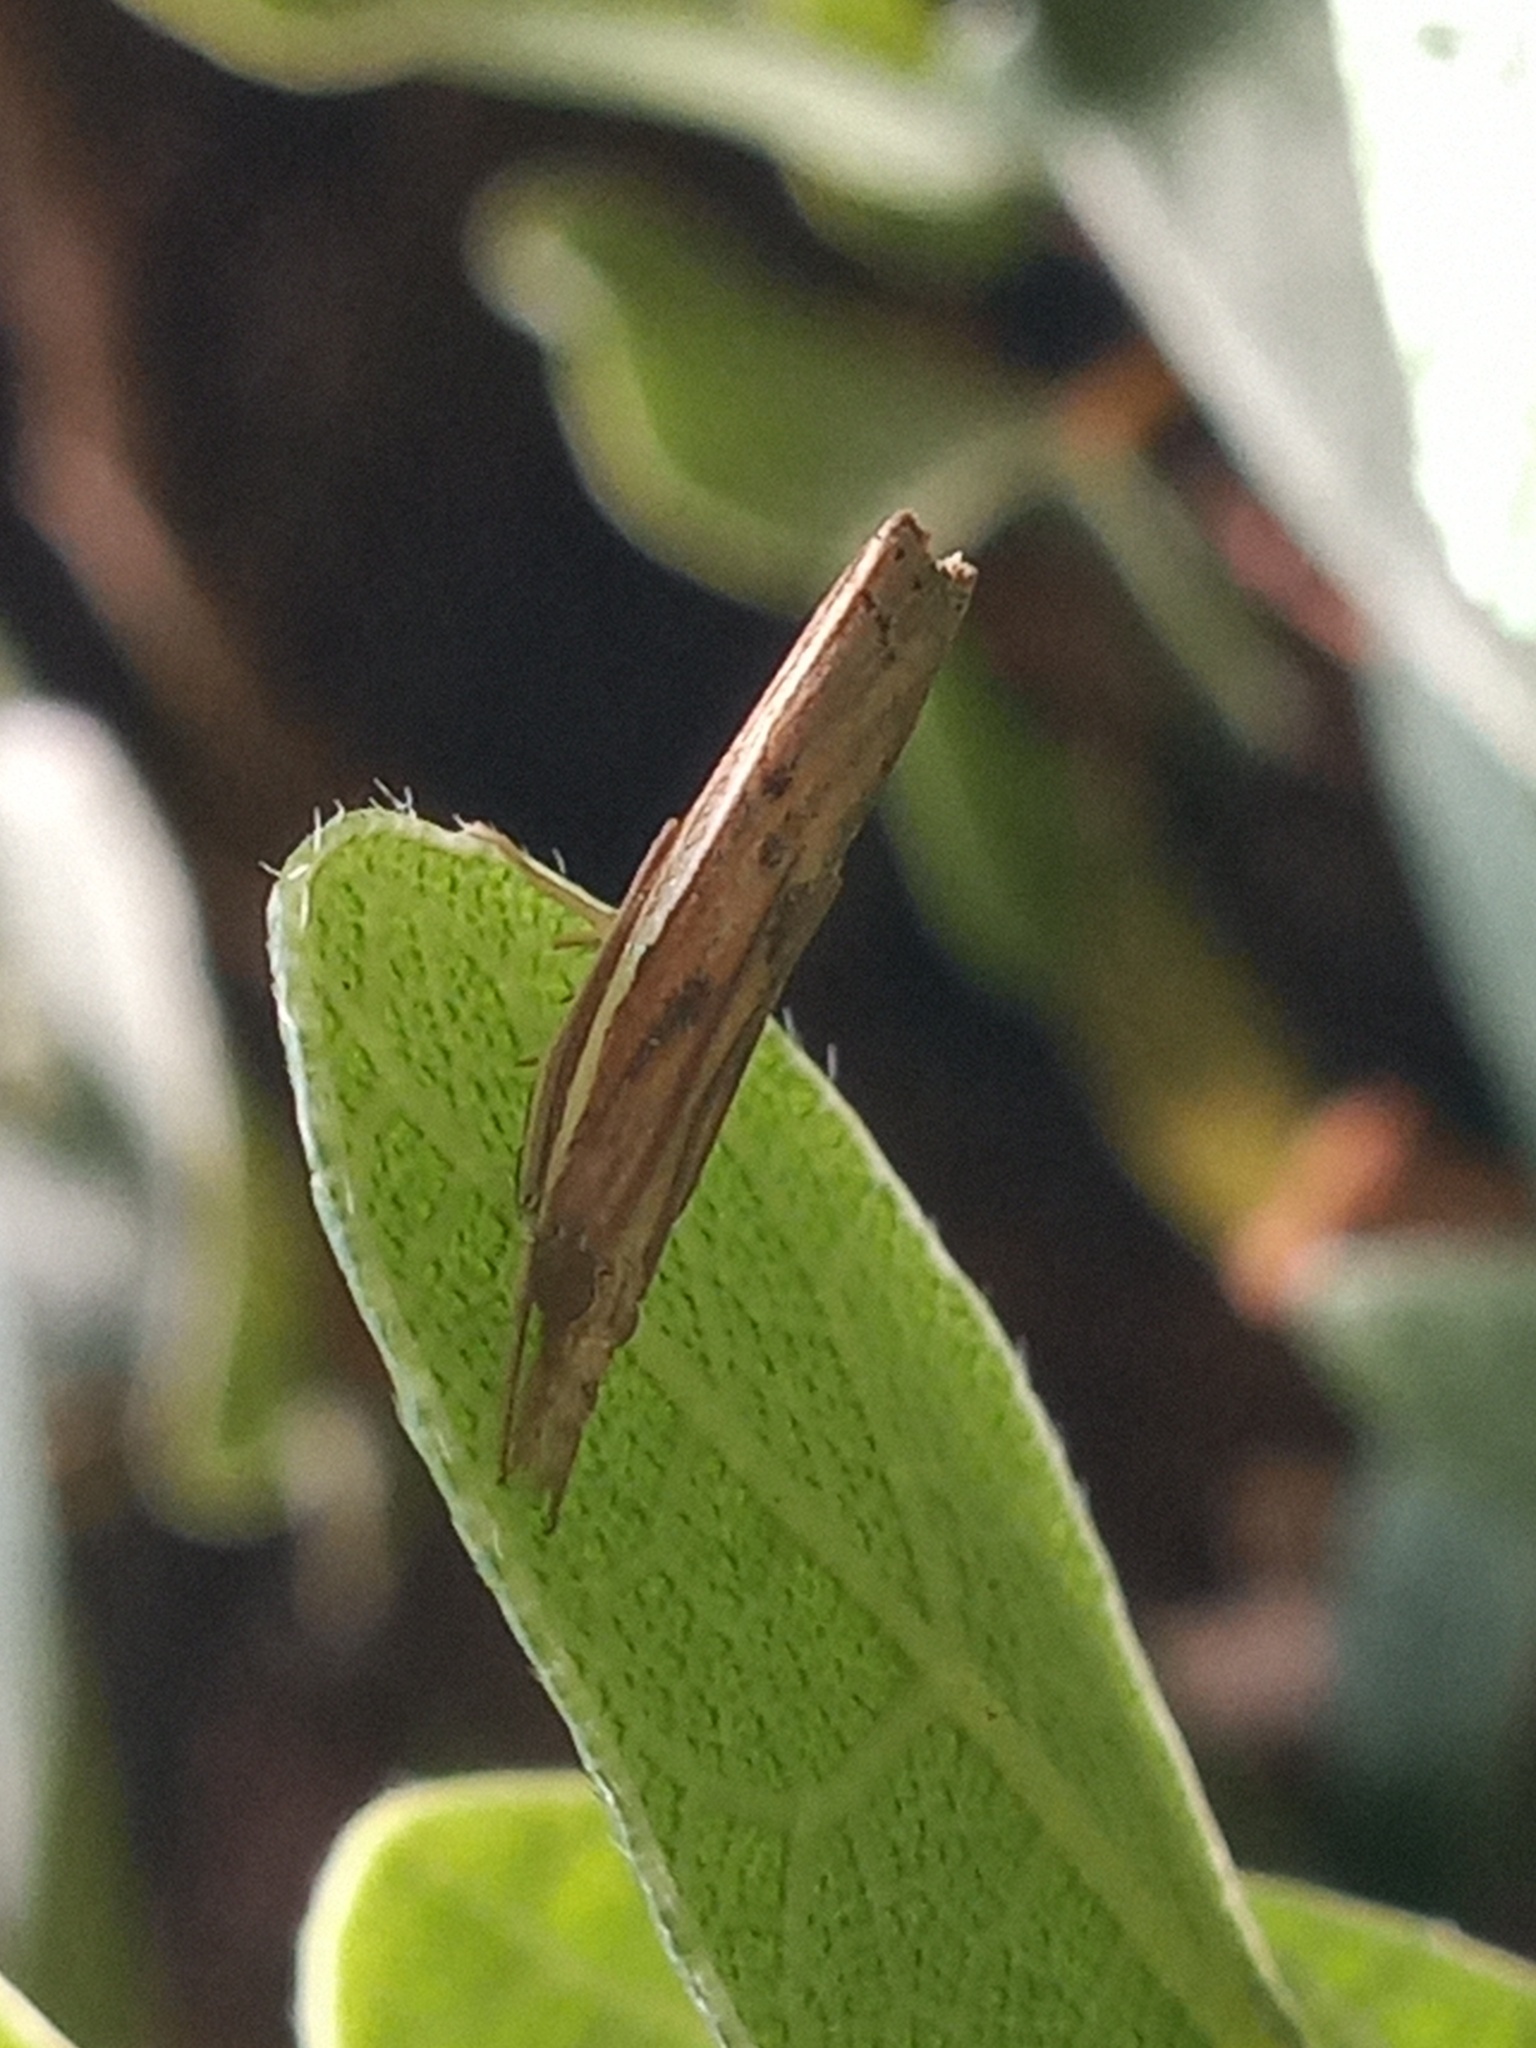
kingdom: Animalia
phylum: Arthropoda
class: Insecta
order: Lepidoptera
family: Crambidae
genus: Fissicrambus
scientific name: Fissicrambus fissiradiellus
